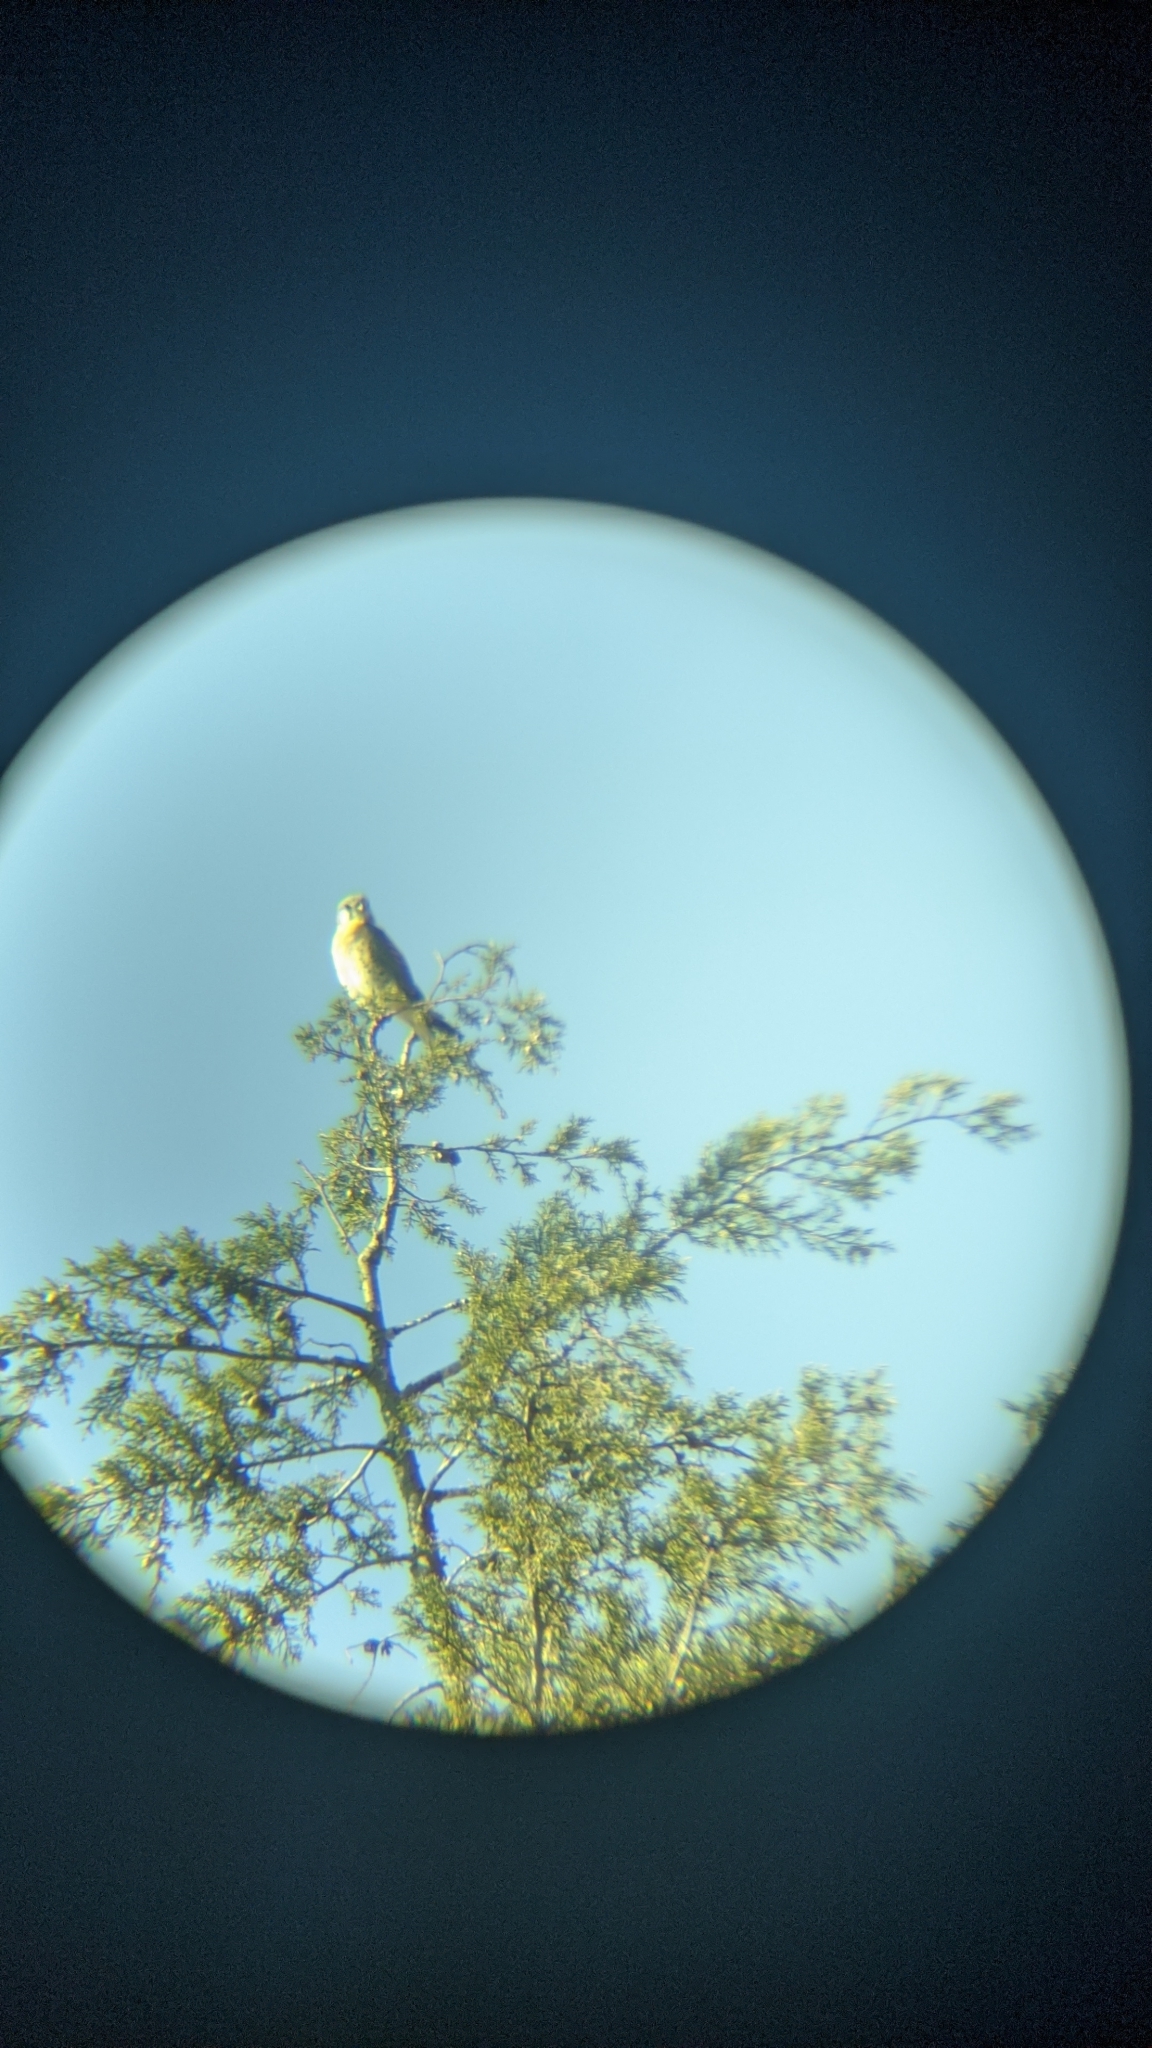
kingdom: Animalia
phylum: Chordata
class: Aves
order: Falconiformes
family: Falconidae
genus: Falco
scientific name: Falco sparverius
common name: American kestrel
